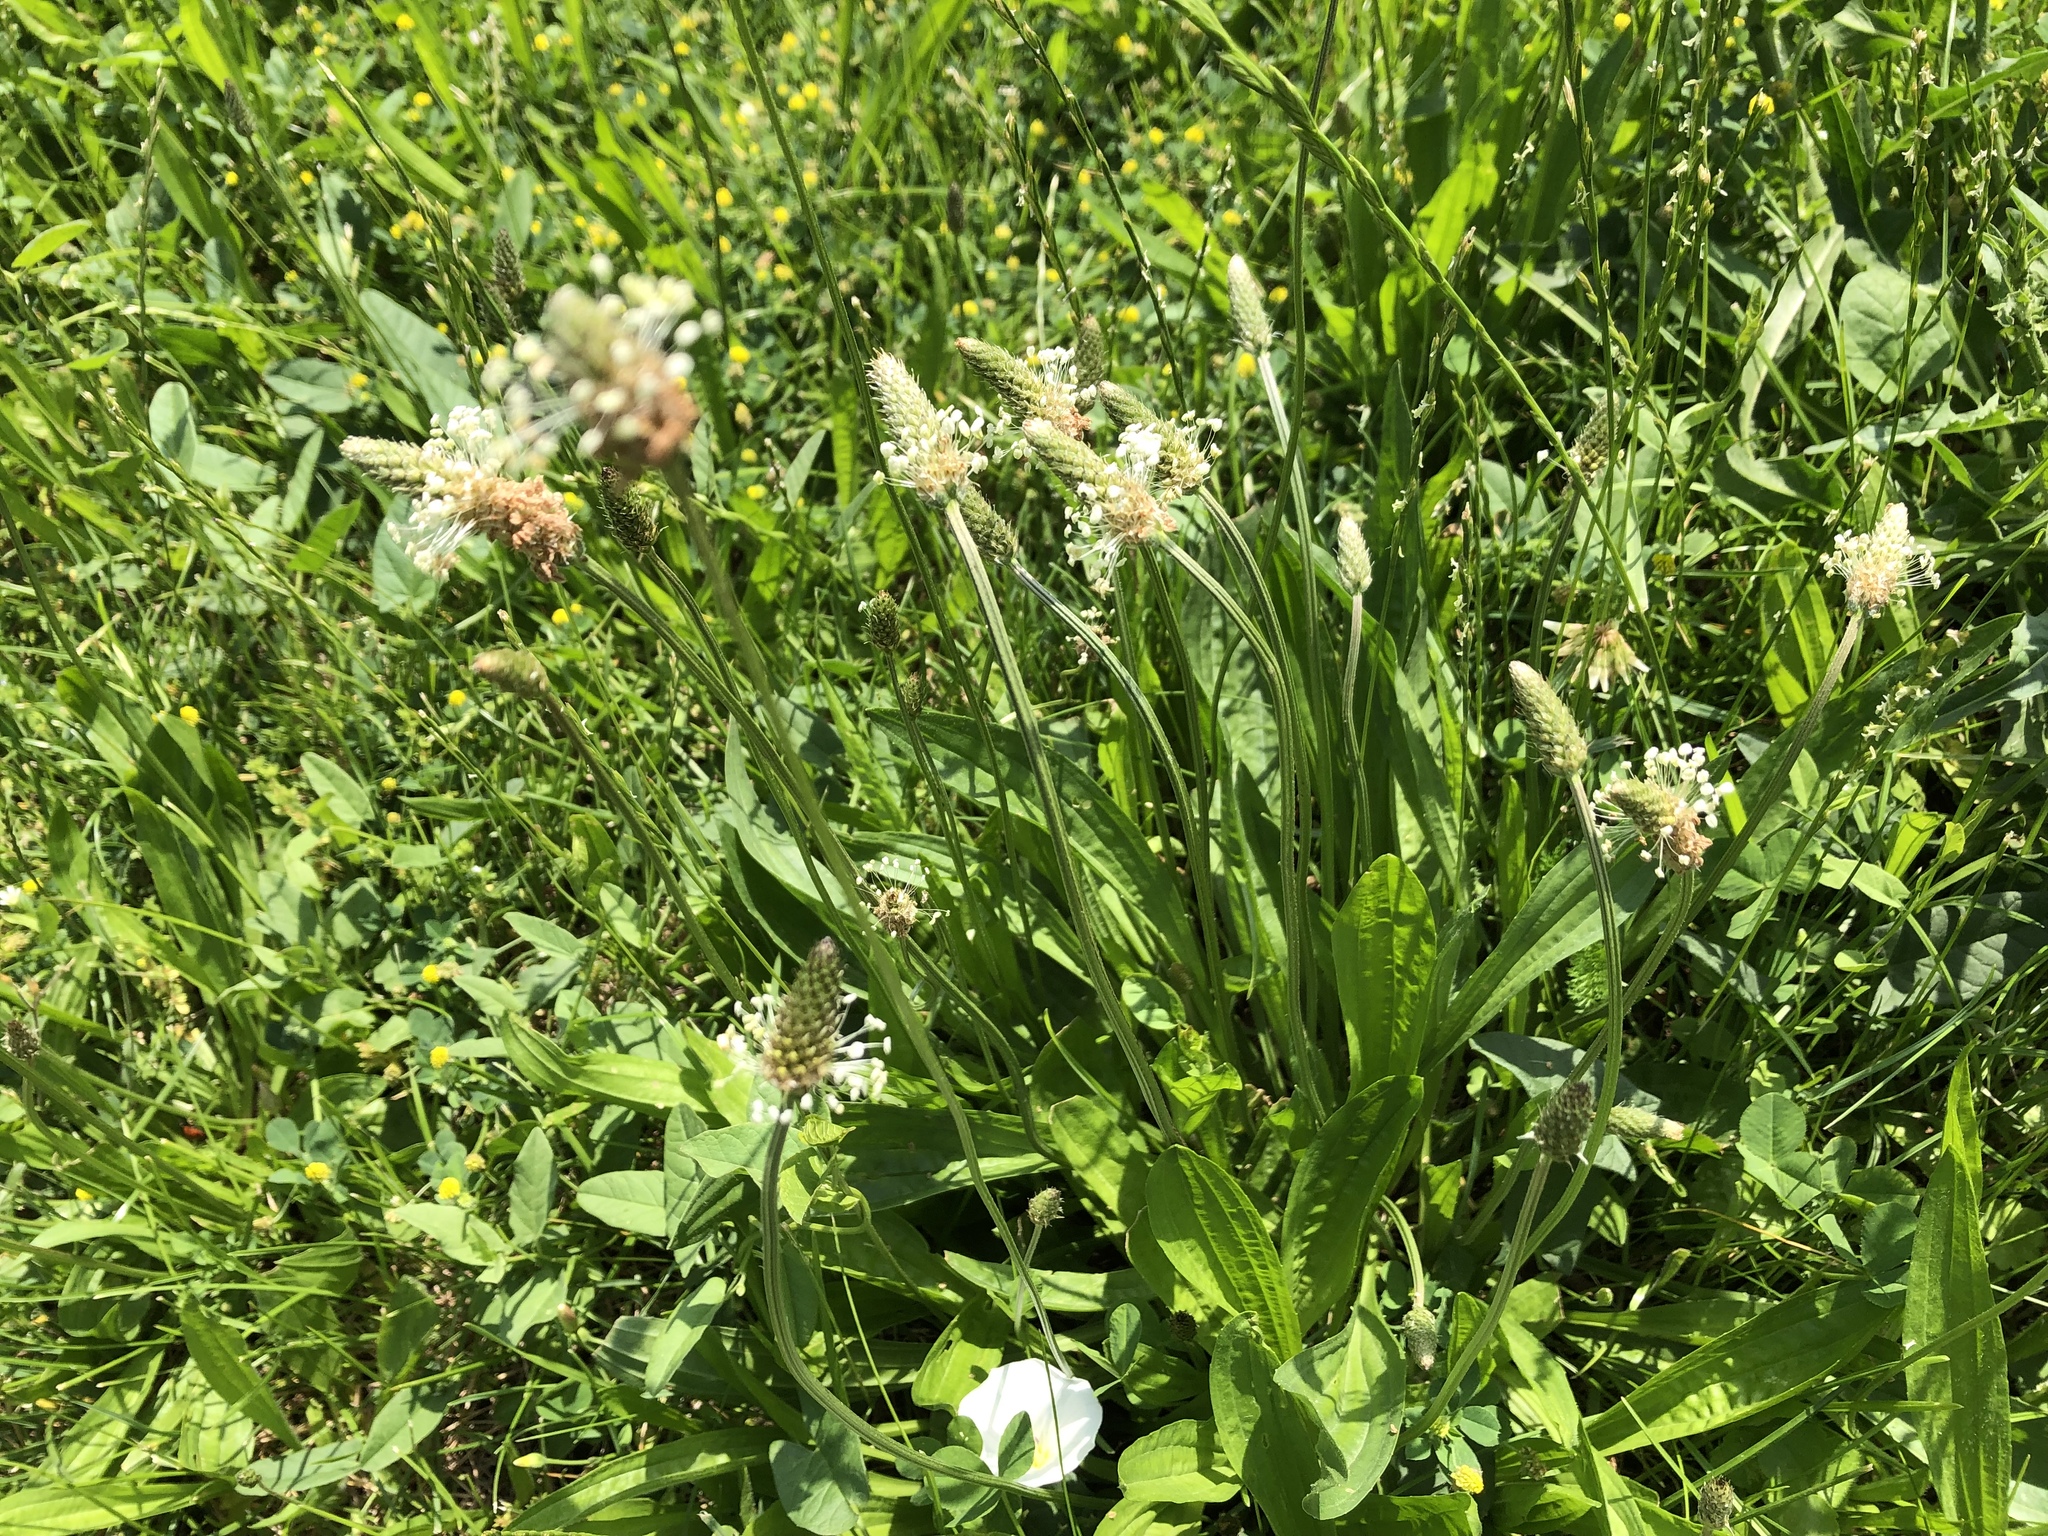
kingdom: Plantae
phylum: Tracheophyta
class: Magnoliopsida
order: Lamiales
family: Plantaginaceae
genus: Plantago
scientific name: Plantago lanceolata
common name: Ribwort plantain
